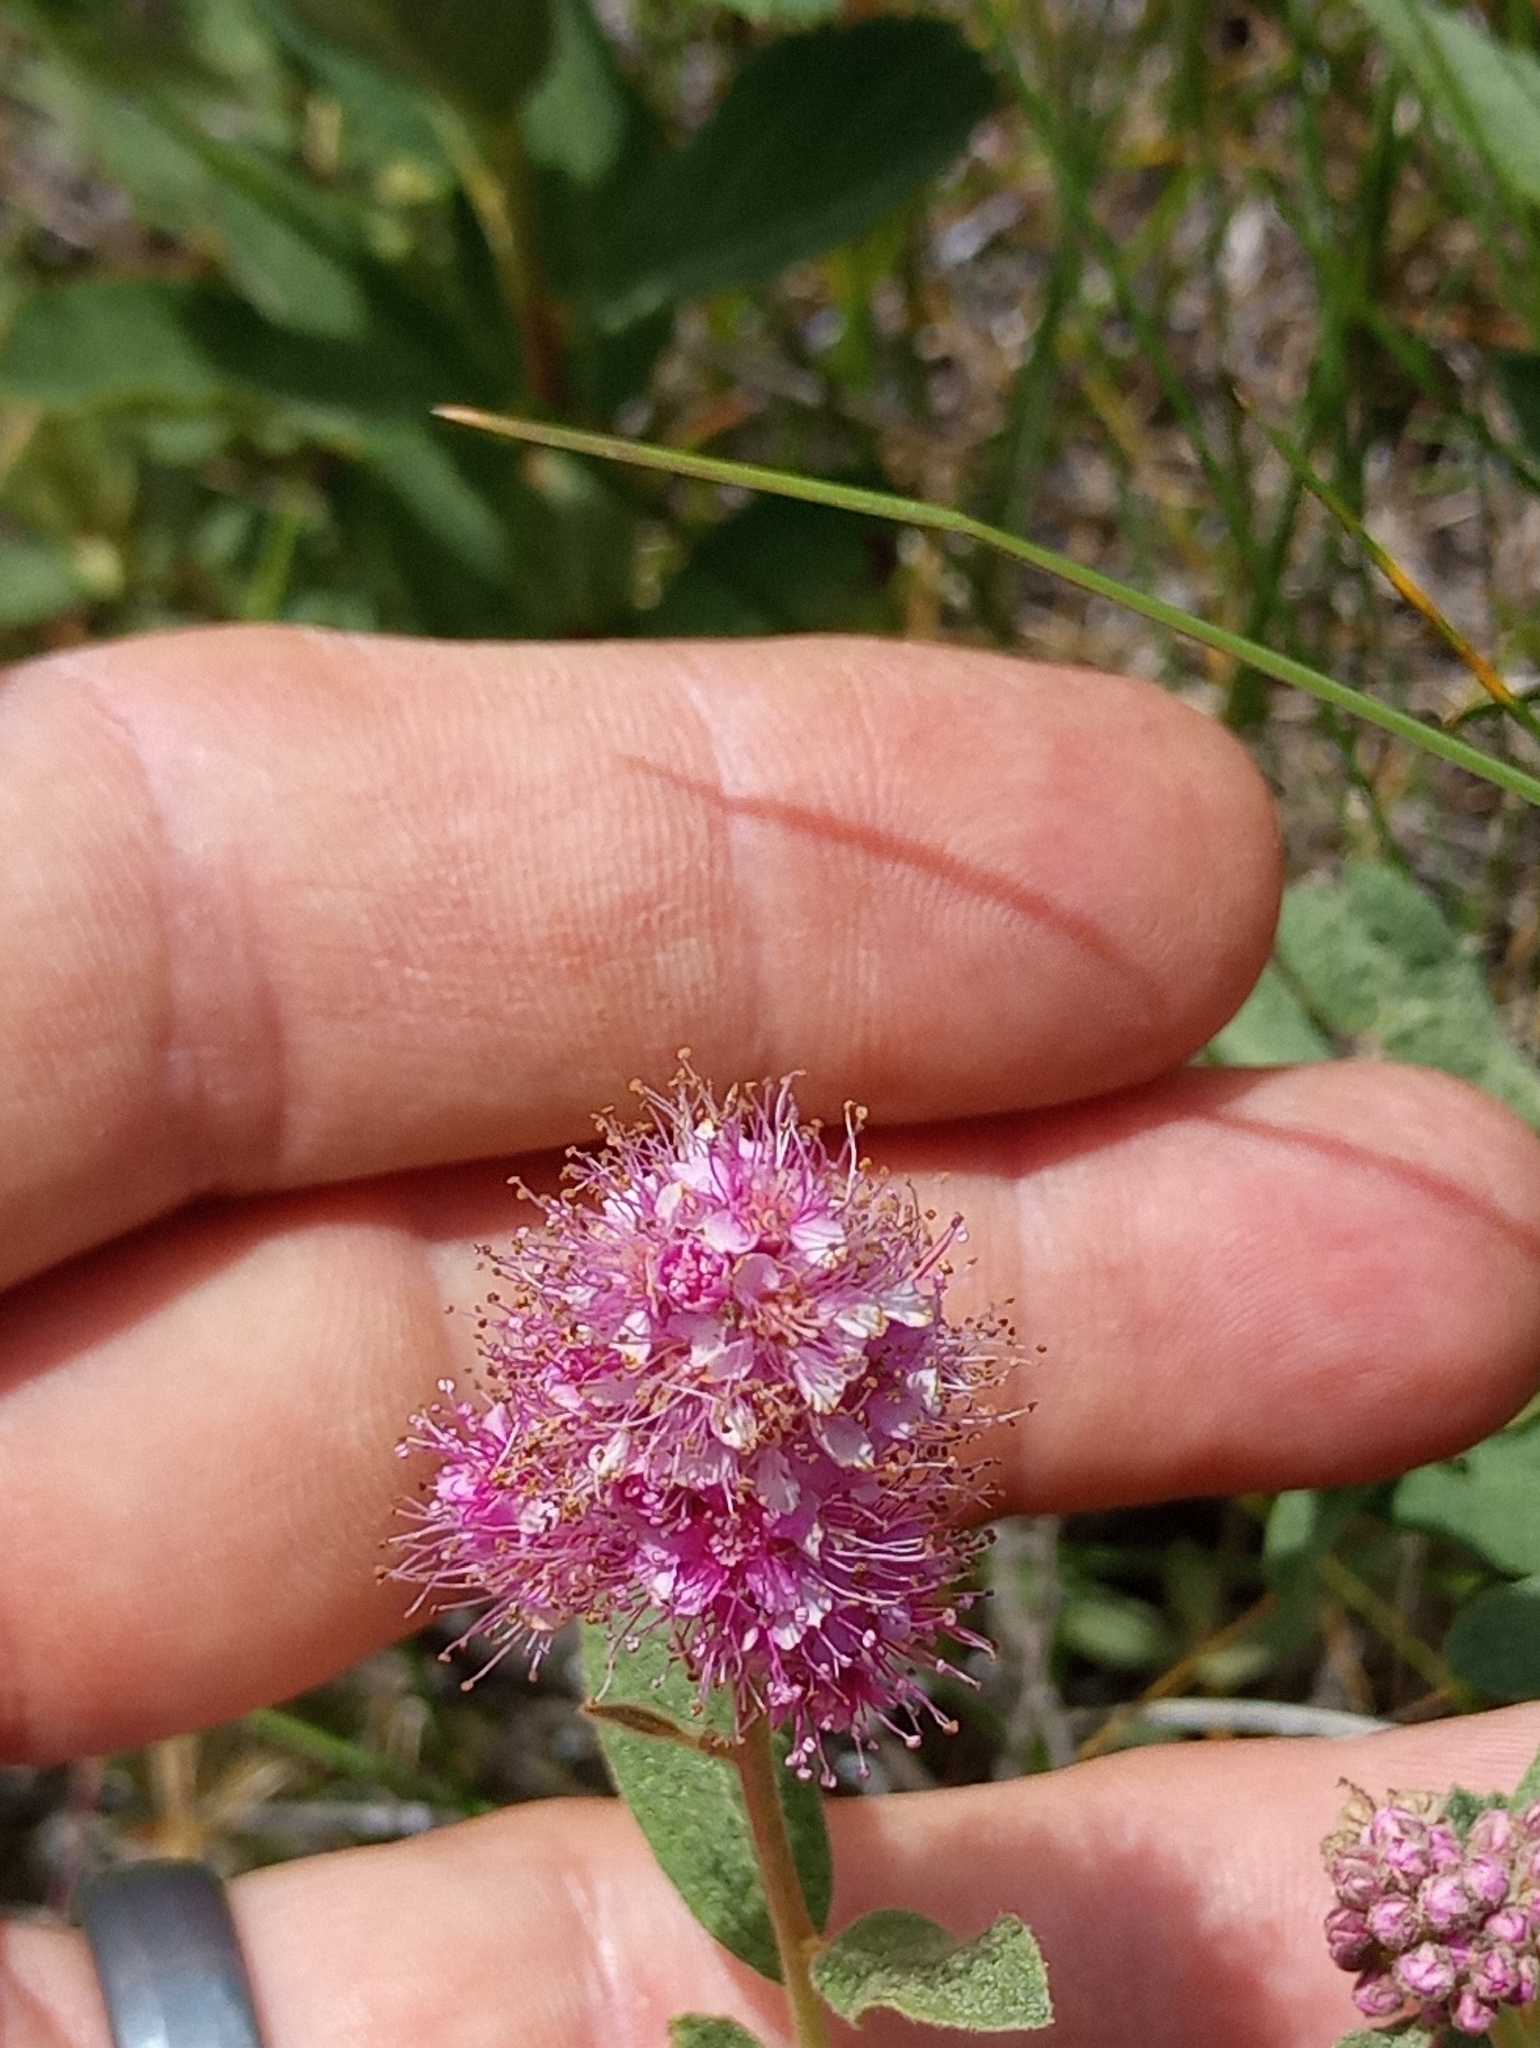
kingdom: Plantae
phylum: Tracheophyta
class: Magnoliopsida
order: Rosales
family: Rosaceae
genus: Spiraea
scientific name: Spiraea splendens
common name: Subalpine meadowsweet
